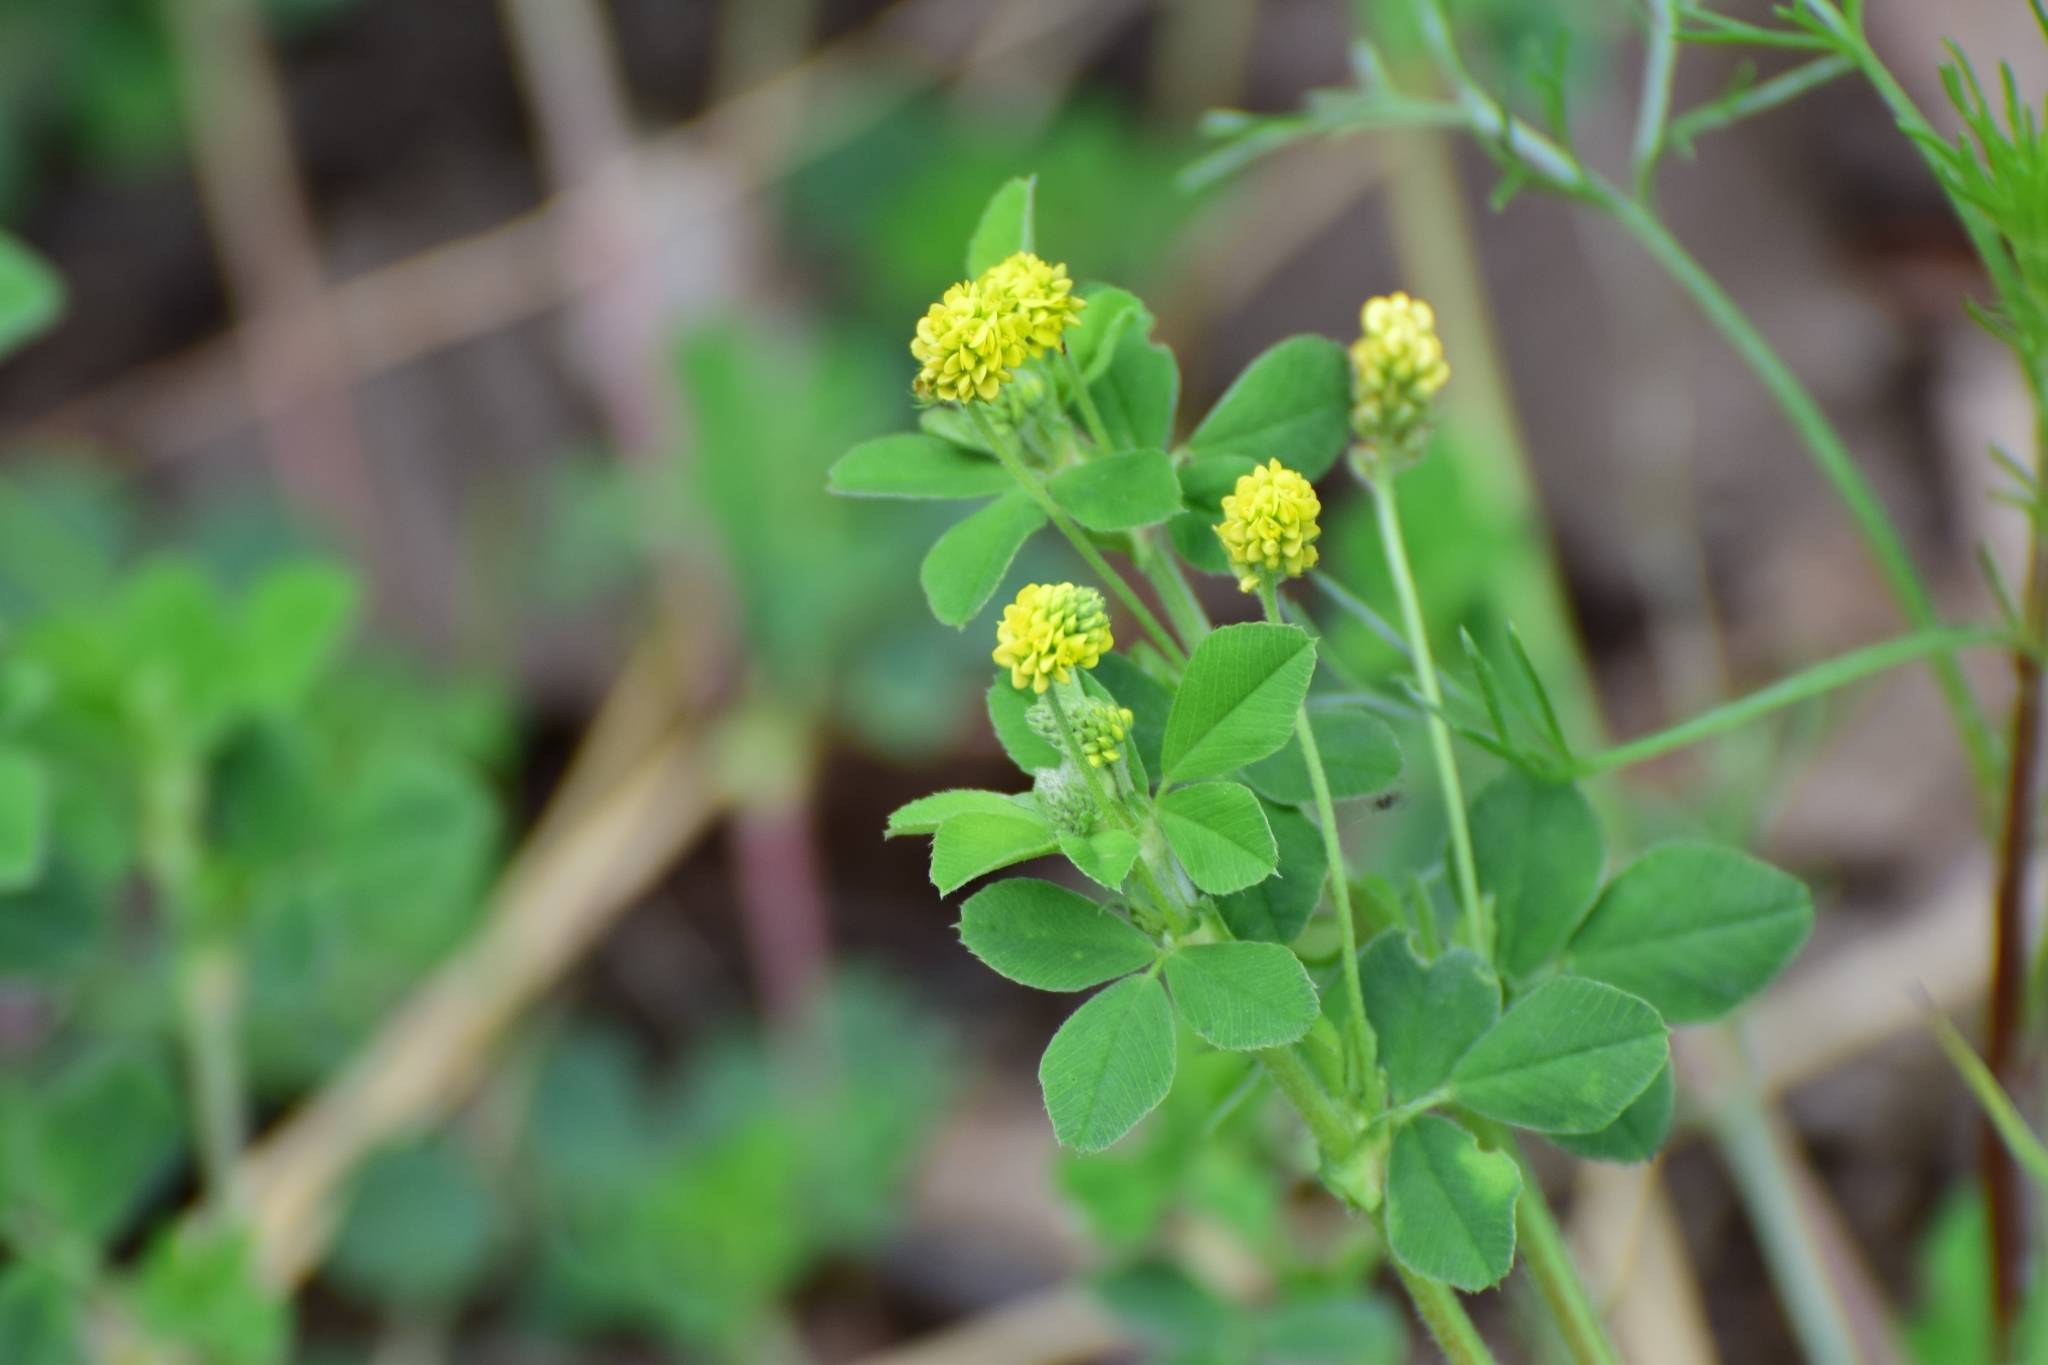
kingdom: Plantae
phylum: Tracheophyta
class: Magnoliopsida
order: Fabales
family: Fabaceae
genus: Medicago
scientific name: Medicago lupulina
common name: Black medick
